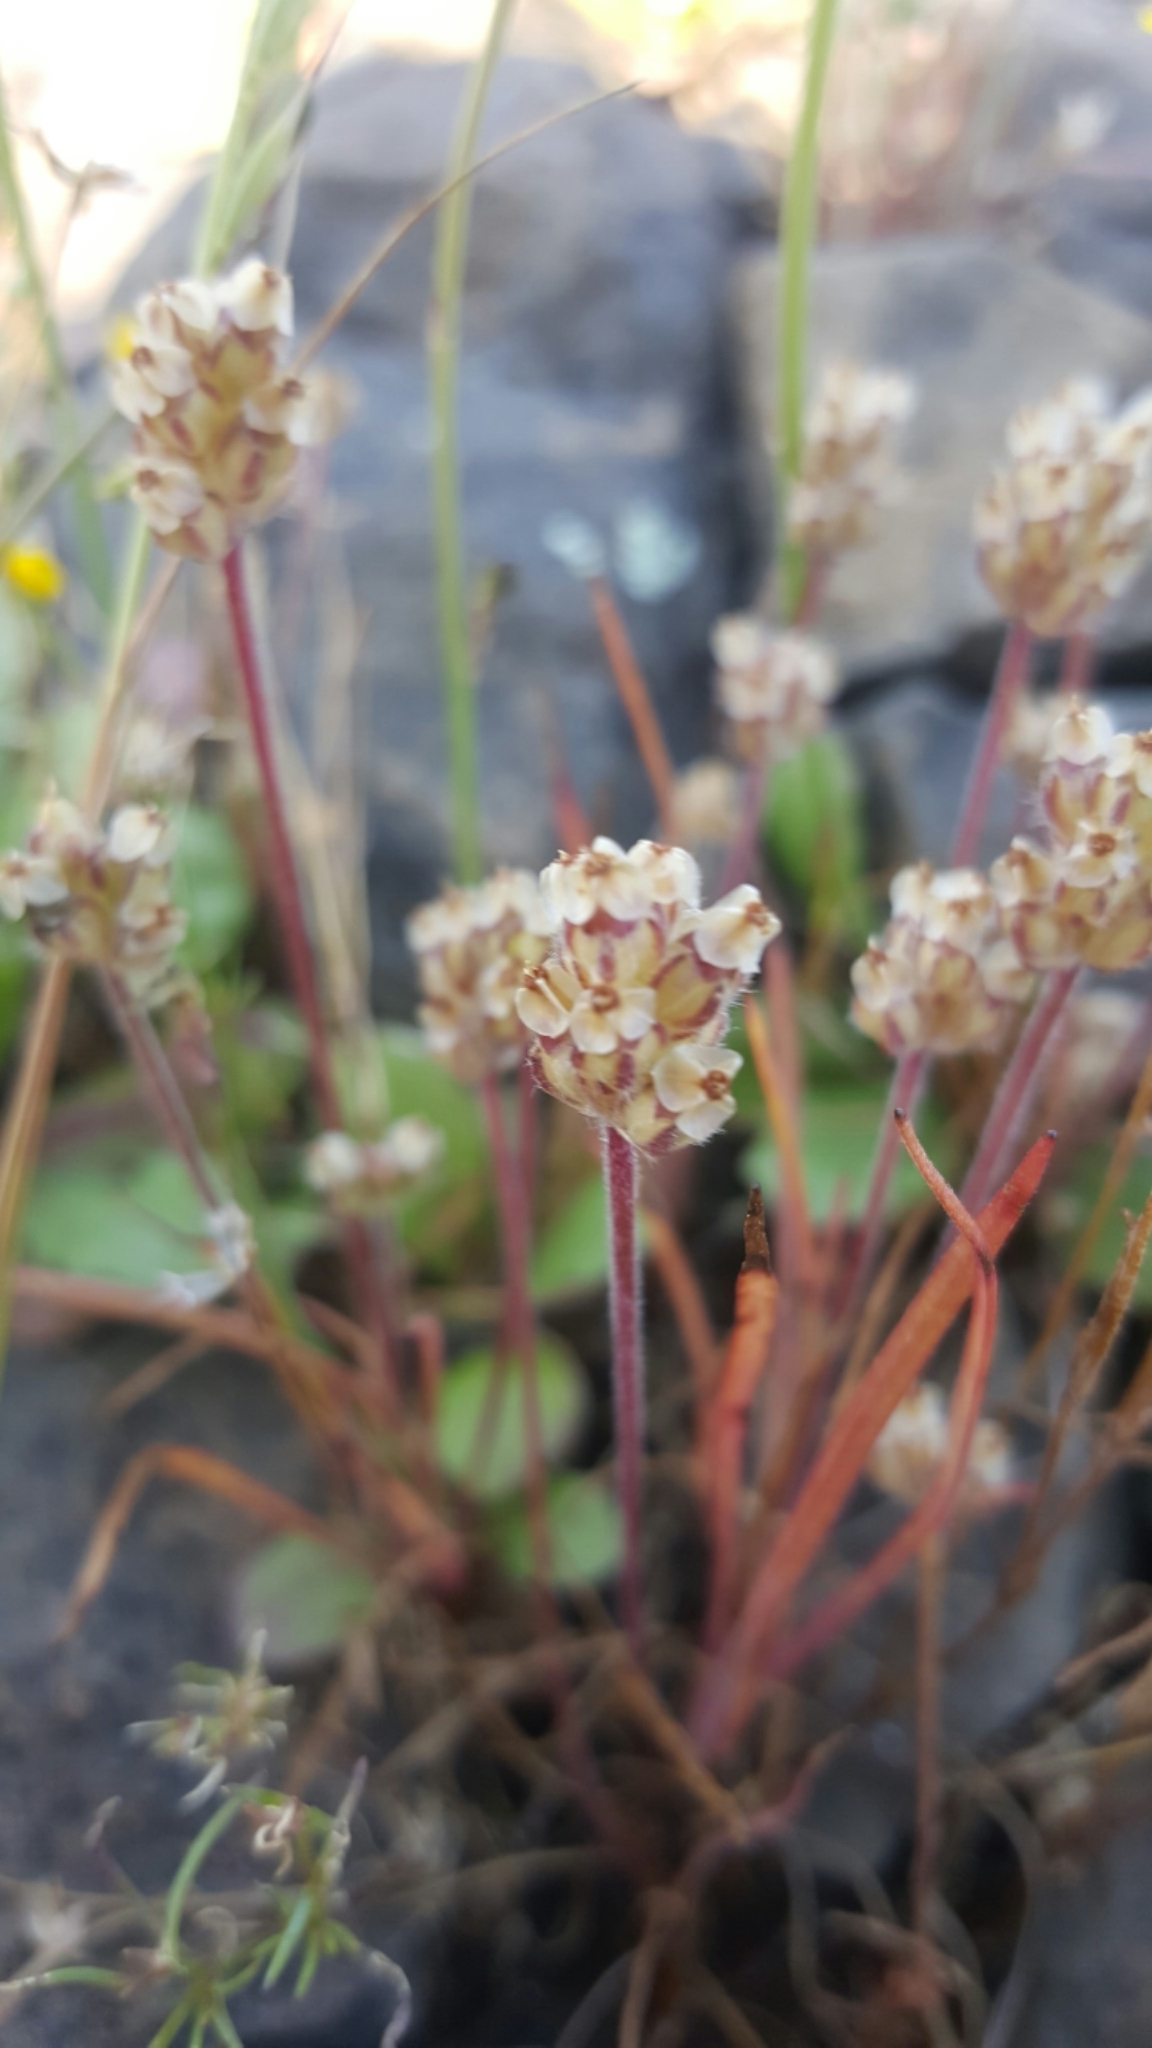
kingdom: Plantae
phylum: Tracheophyta
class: Magnoliopsida
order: Lamiales
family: Plantaginaceae
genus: Plantago
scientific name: Plantago erecta
